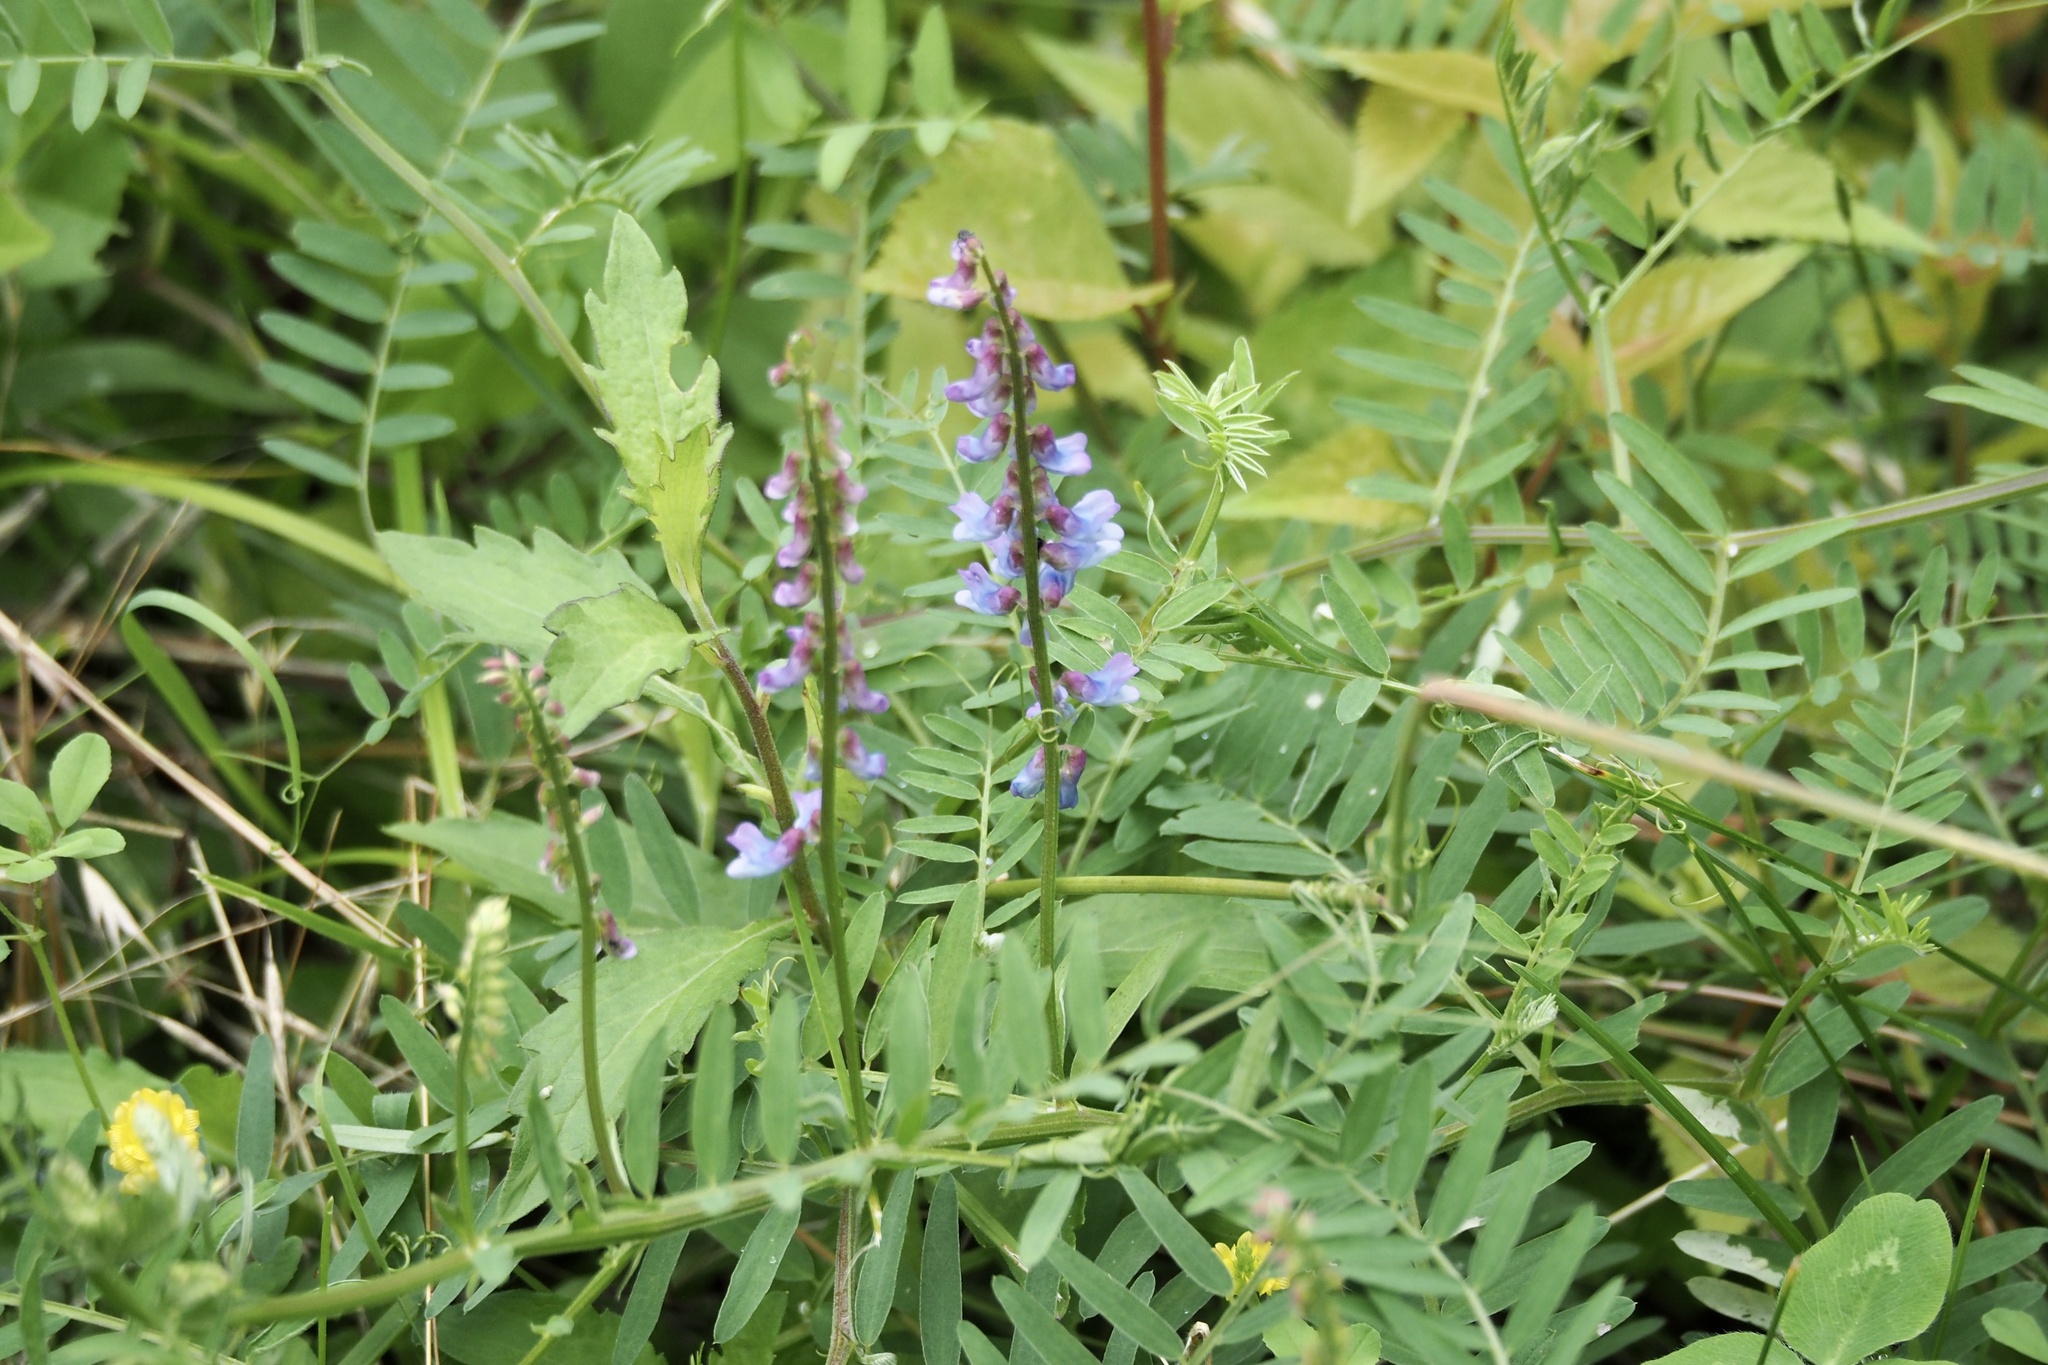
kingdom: Plantae
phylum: Tracheophyta
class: Magnoliopsida
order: Fabales
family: Fabaceae
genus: Vicia
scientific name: Vicia cracca
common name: Bird vetch
